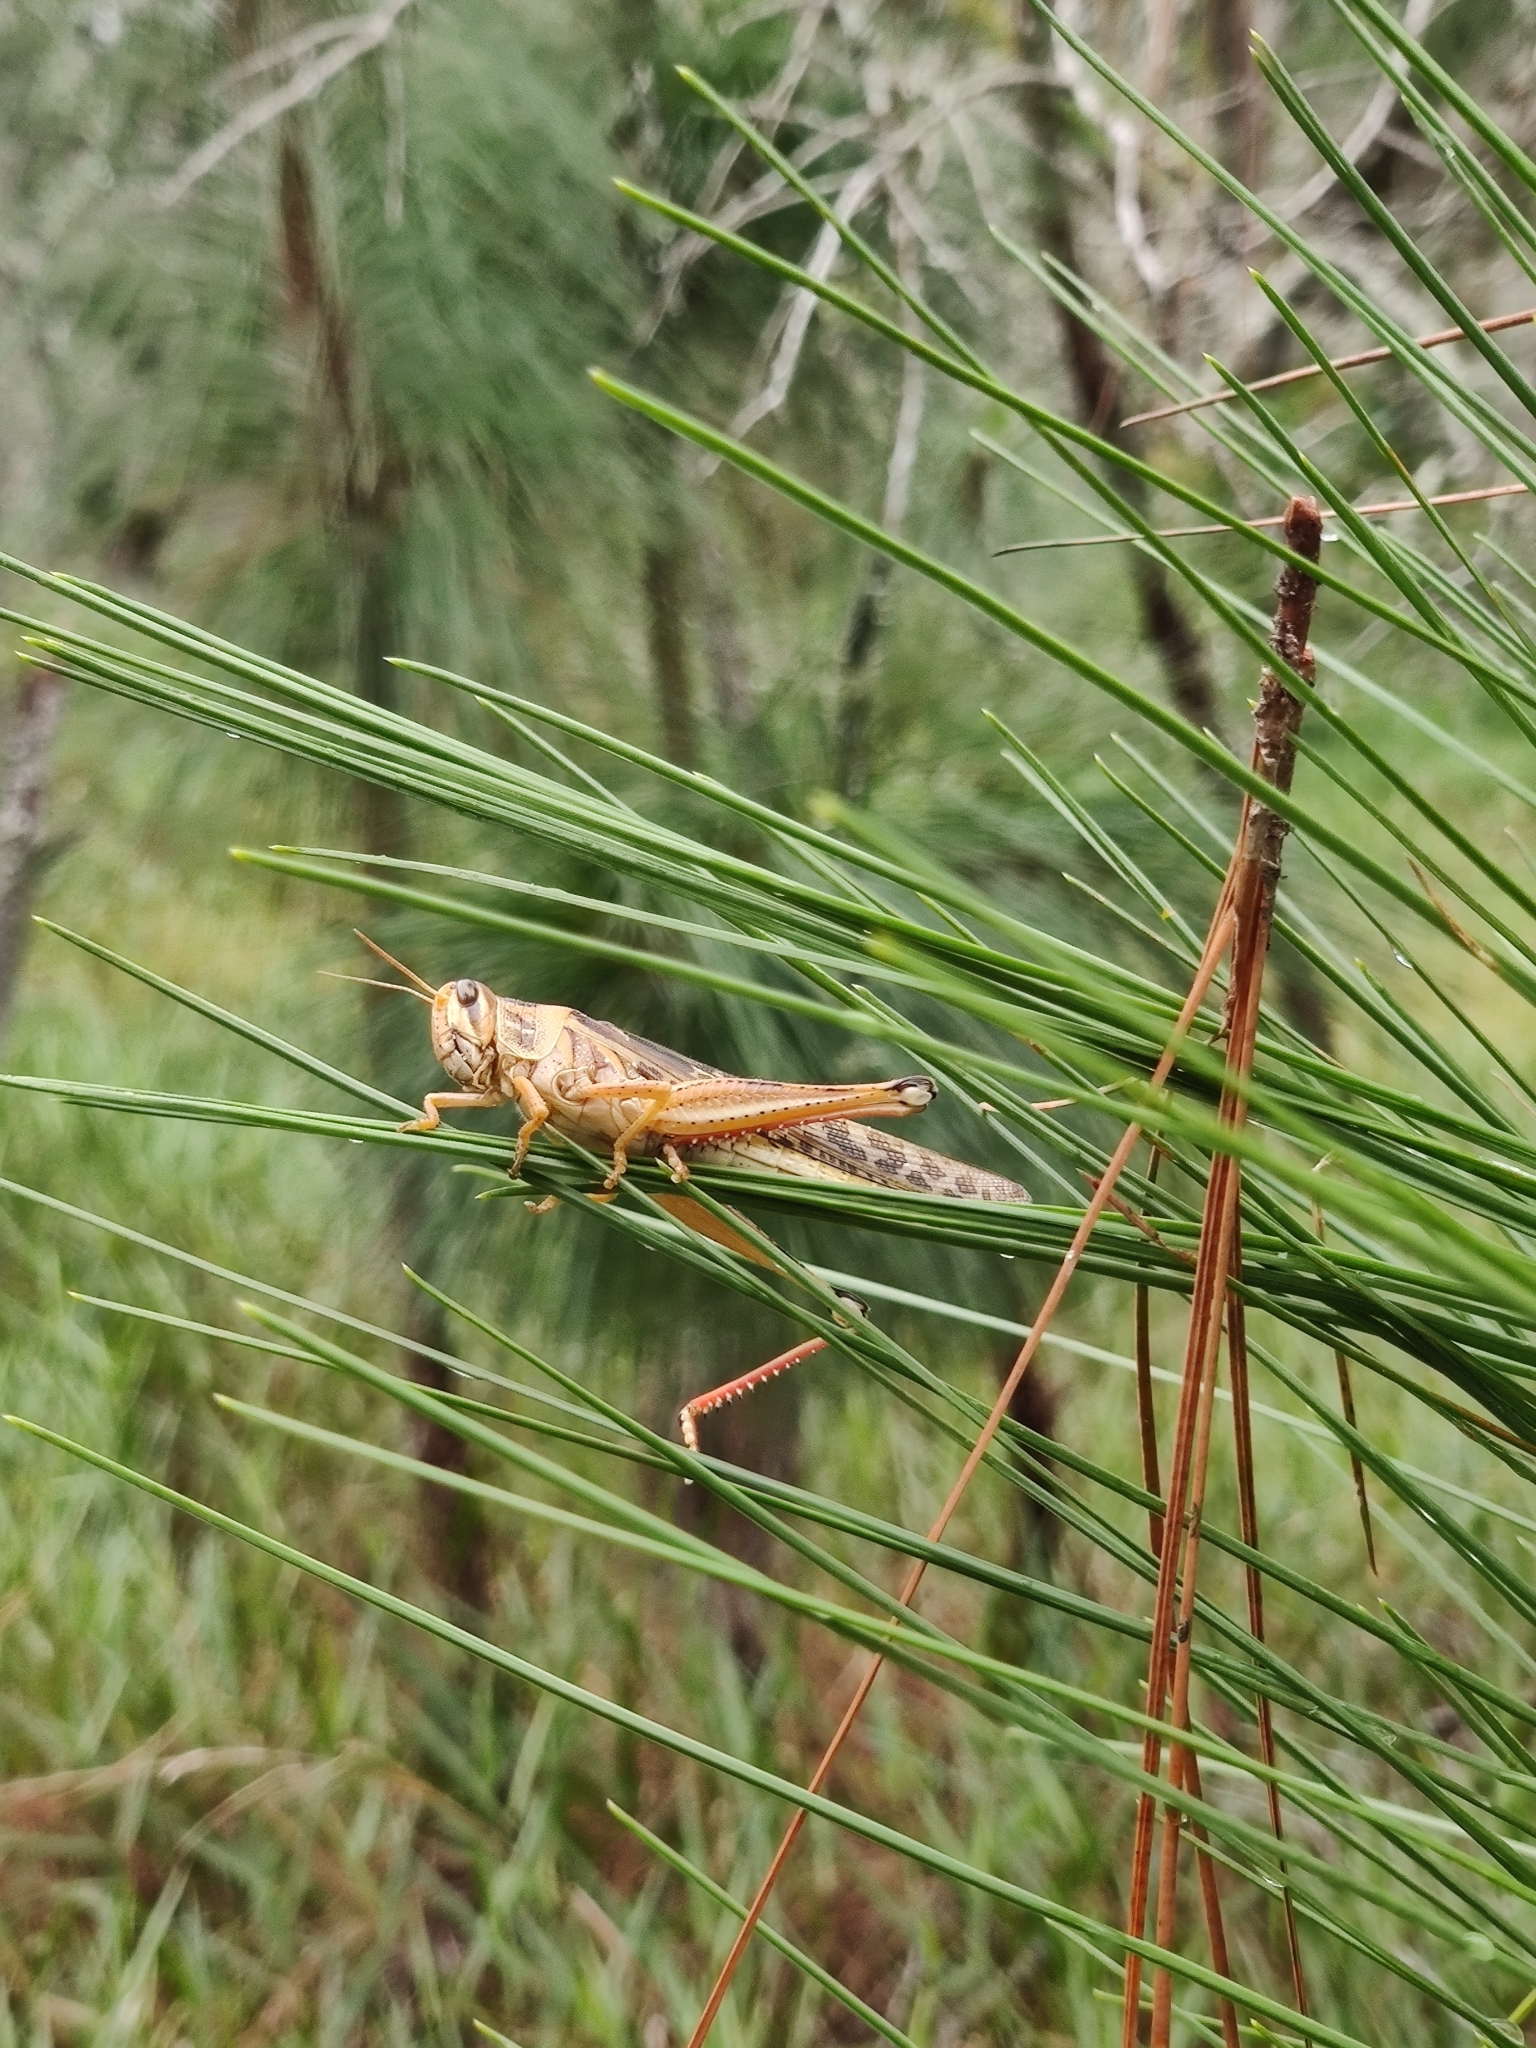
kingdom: Animalia
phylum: Arthropoda
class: Insecta
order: Orthoptera
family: Acrididae
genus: Schistocerca
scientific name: Schistocerca americana
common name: American bird locust
